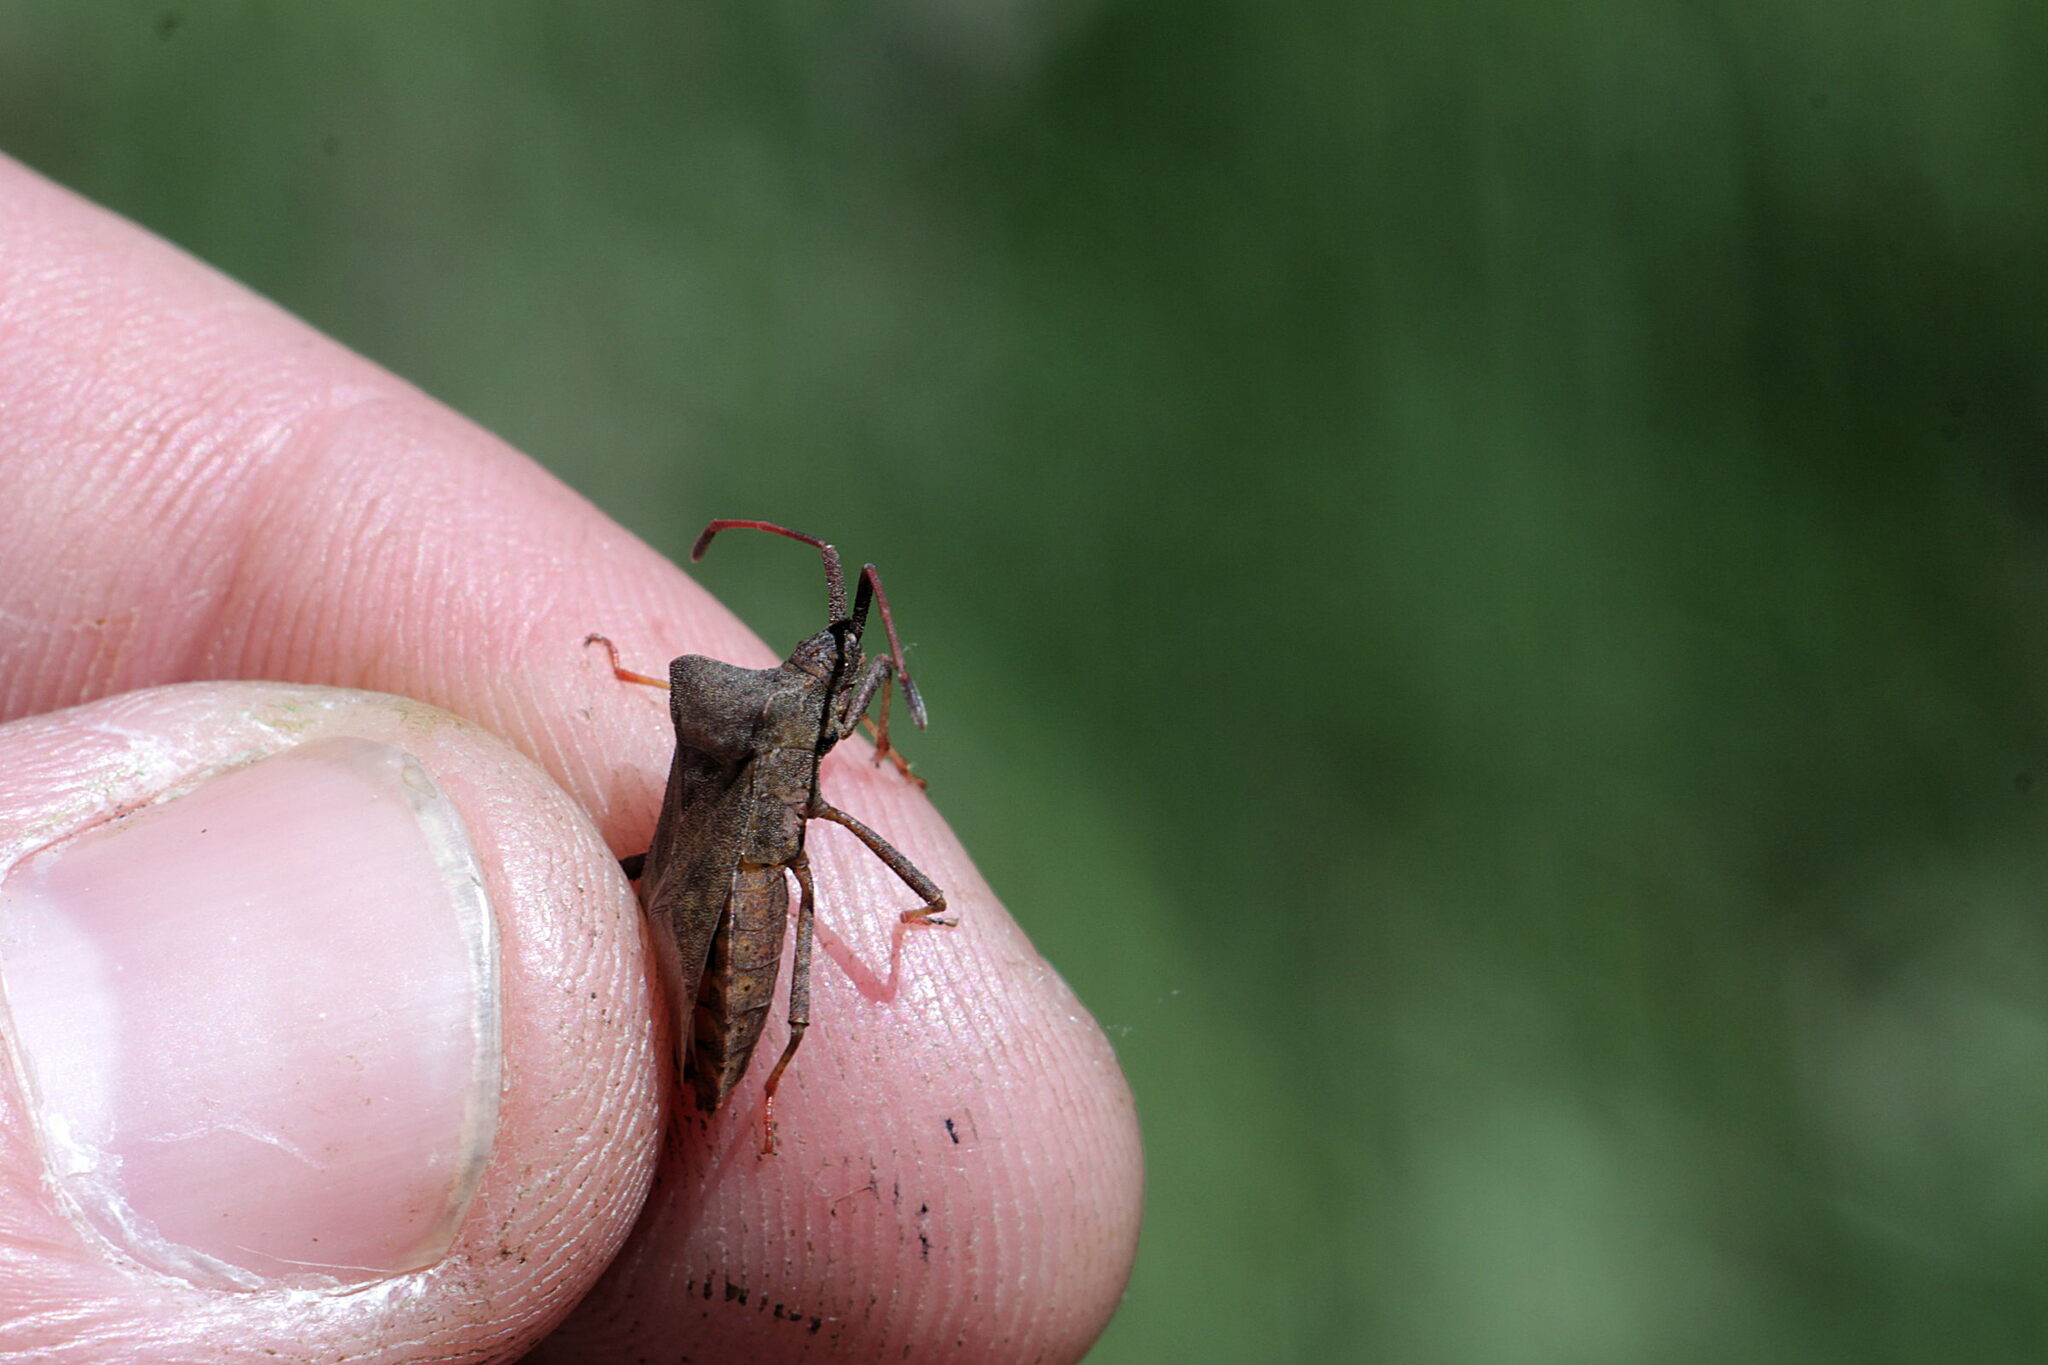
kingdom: Animalia
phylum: Arthropoda
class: Insecta
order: Hemiptera
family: Coreidae
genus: Coreus
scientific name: Coreus marginatus
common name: Dock bug
